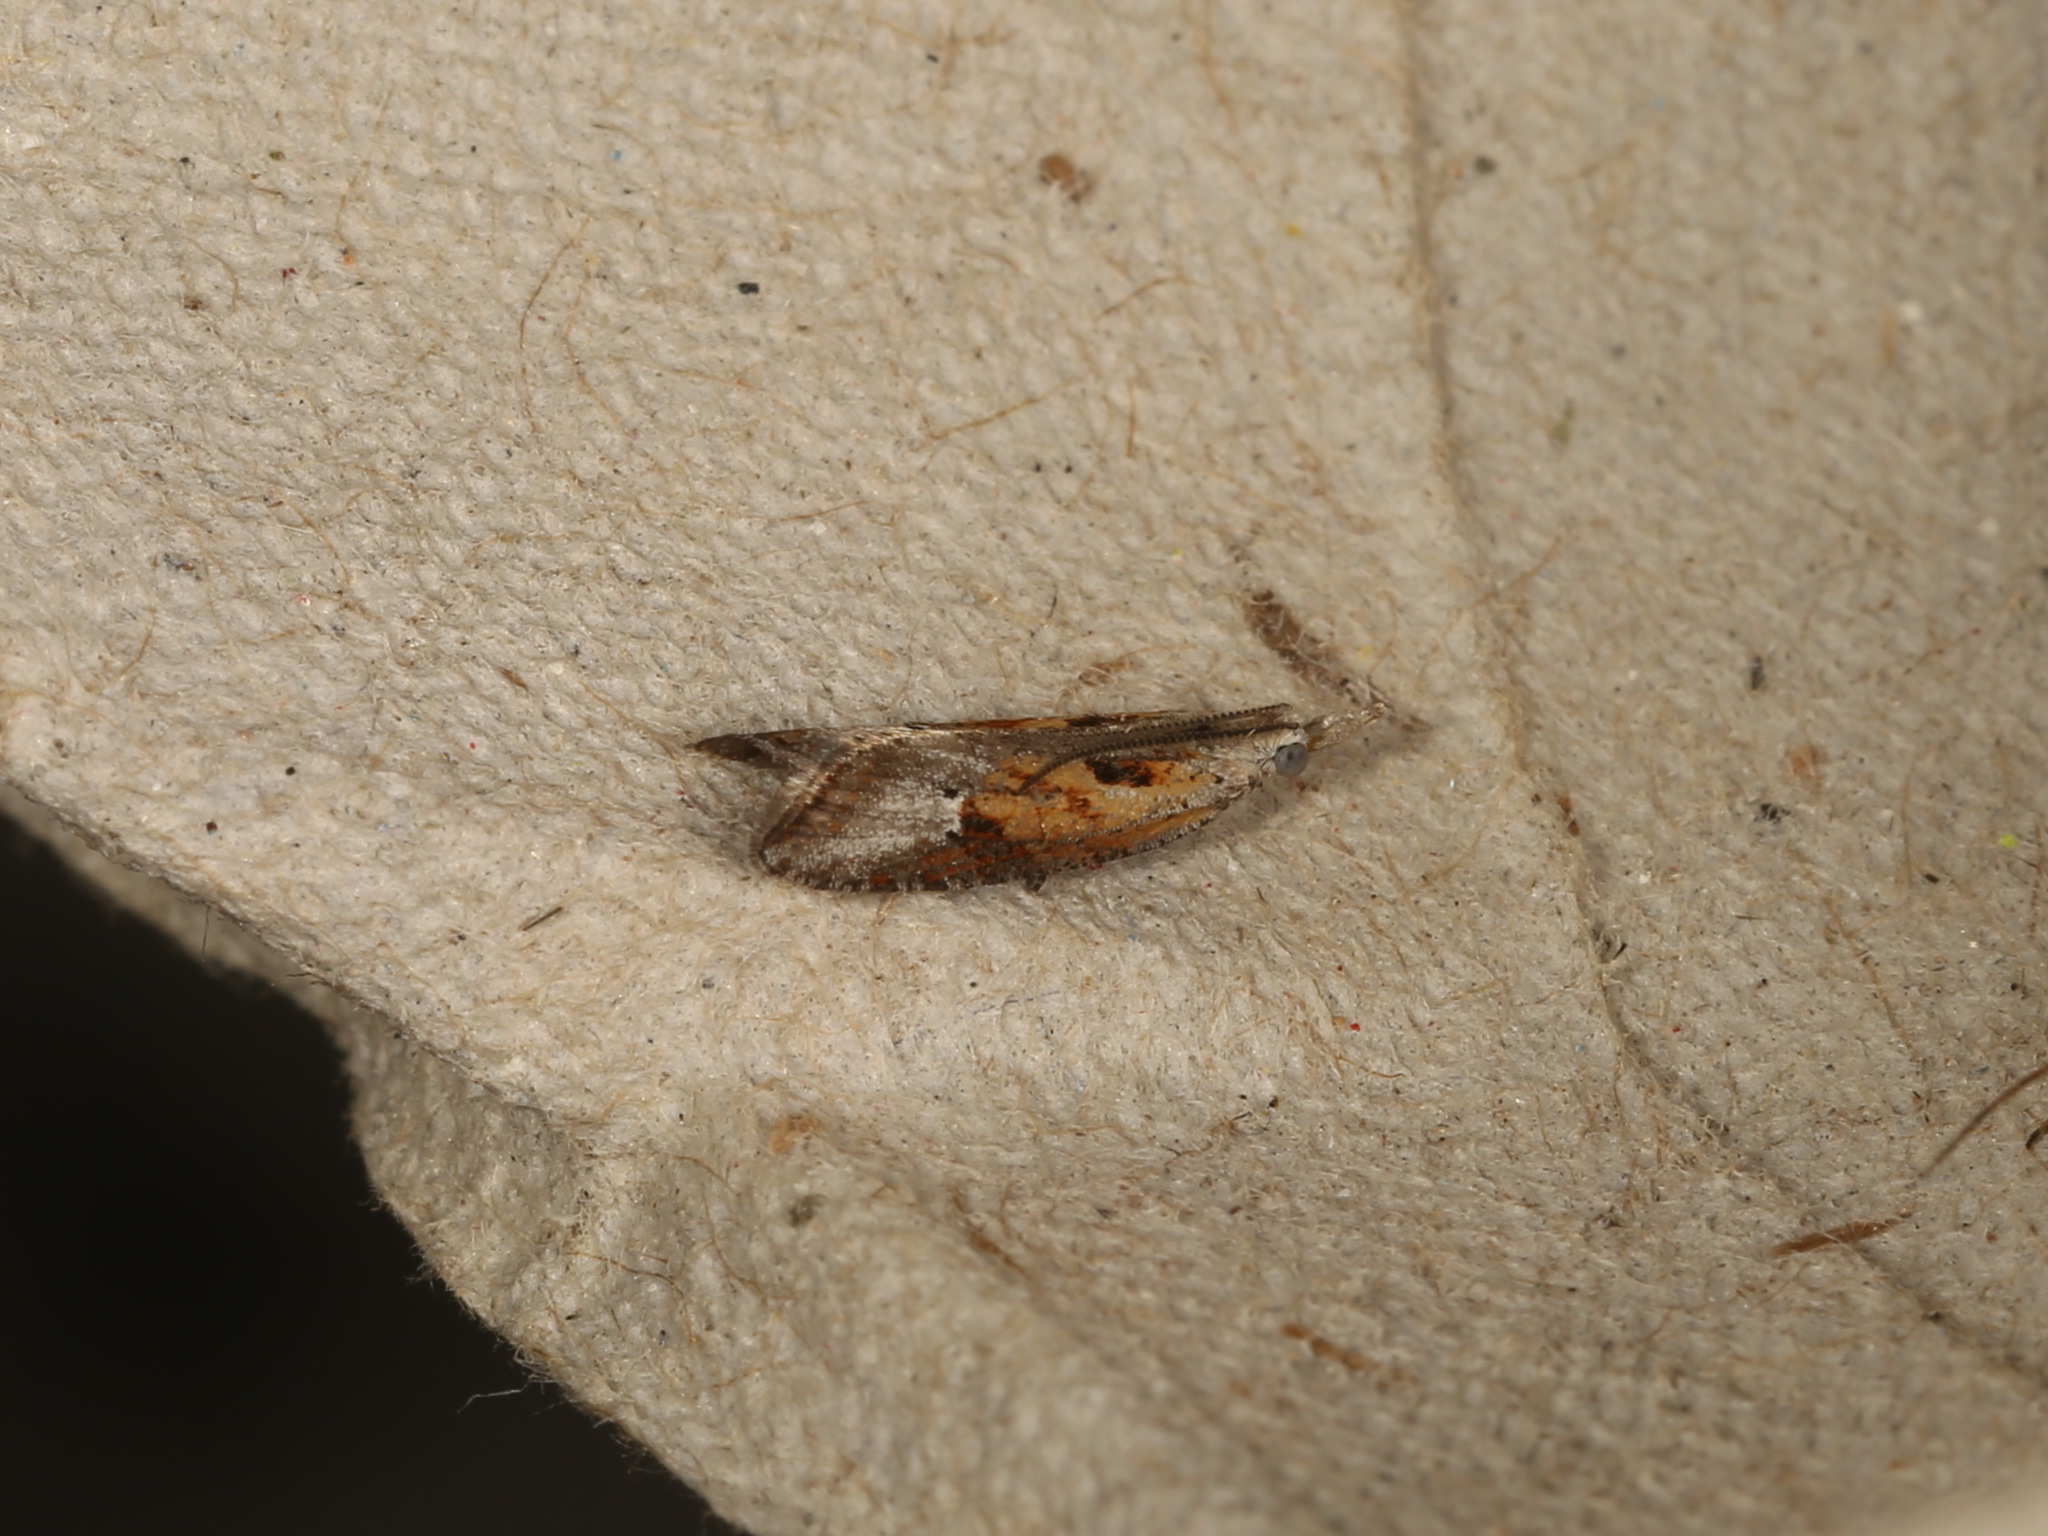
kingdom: Animalia
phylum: Arthropoda
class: Insecta
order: Lepidoptera
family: Tortricidae
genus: Peraglyphis
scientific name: Peraglyphis chalepa
